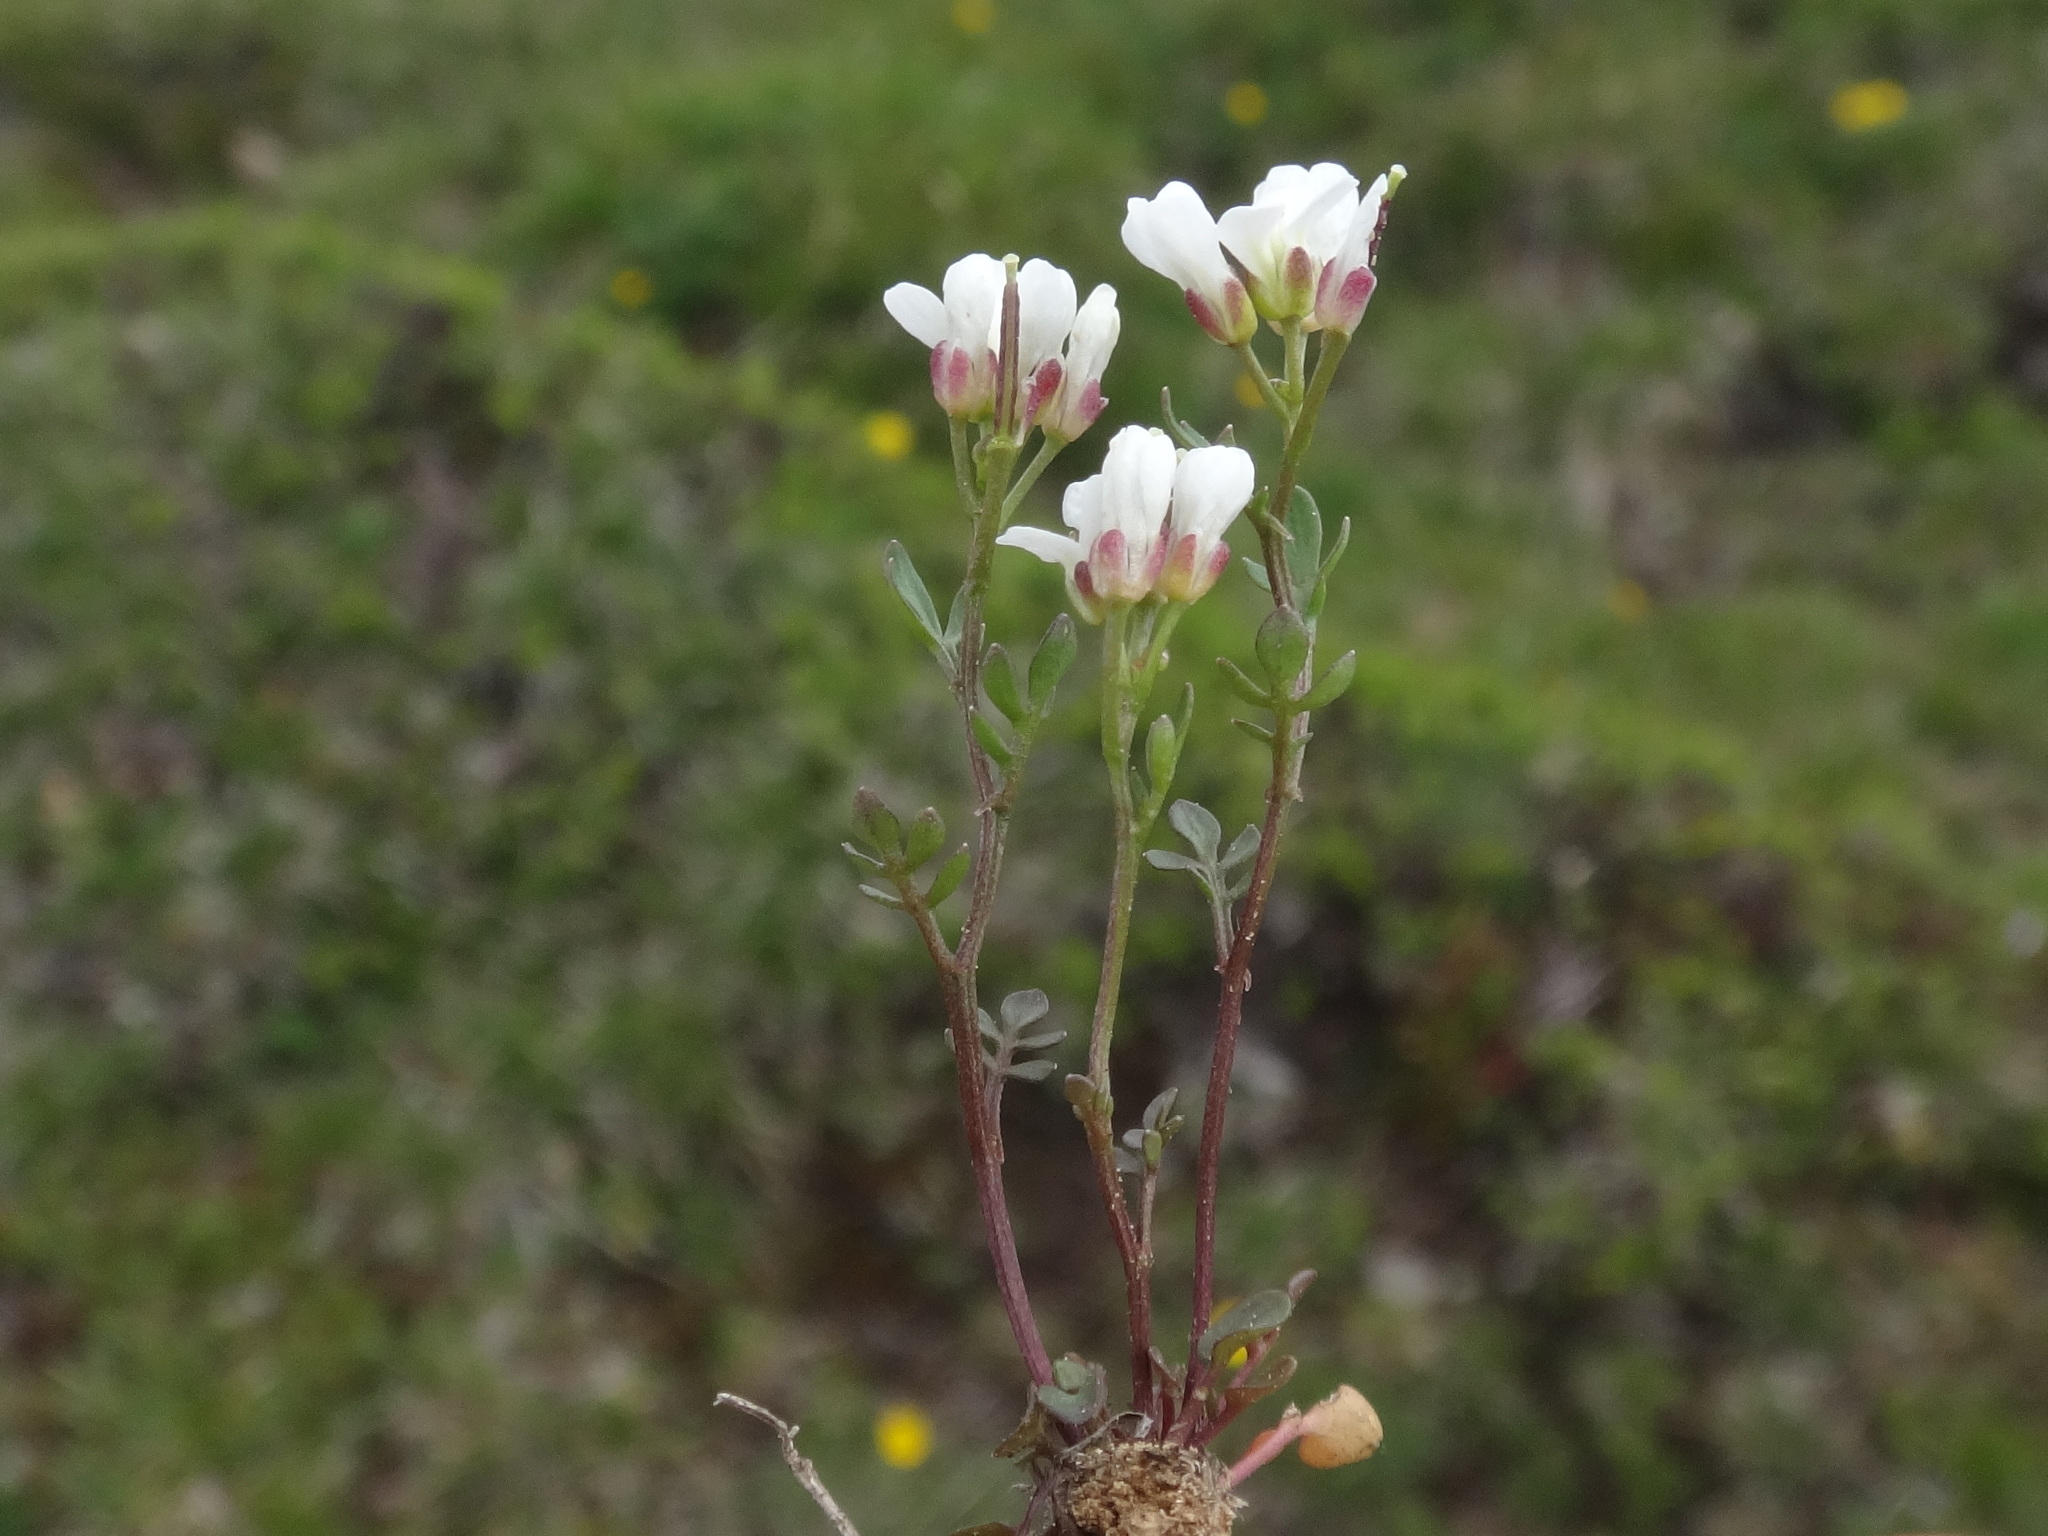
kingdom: Plantae
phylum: Tracheophyta
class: Magnoliopsida
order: Brassicales
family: Brassicaceae
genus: Cardamine
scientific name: Cardamine resedifolia
